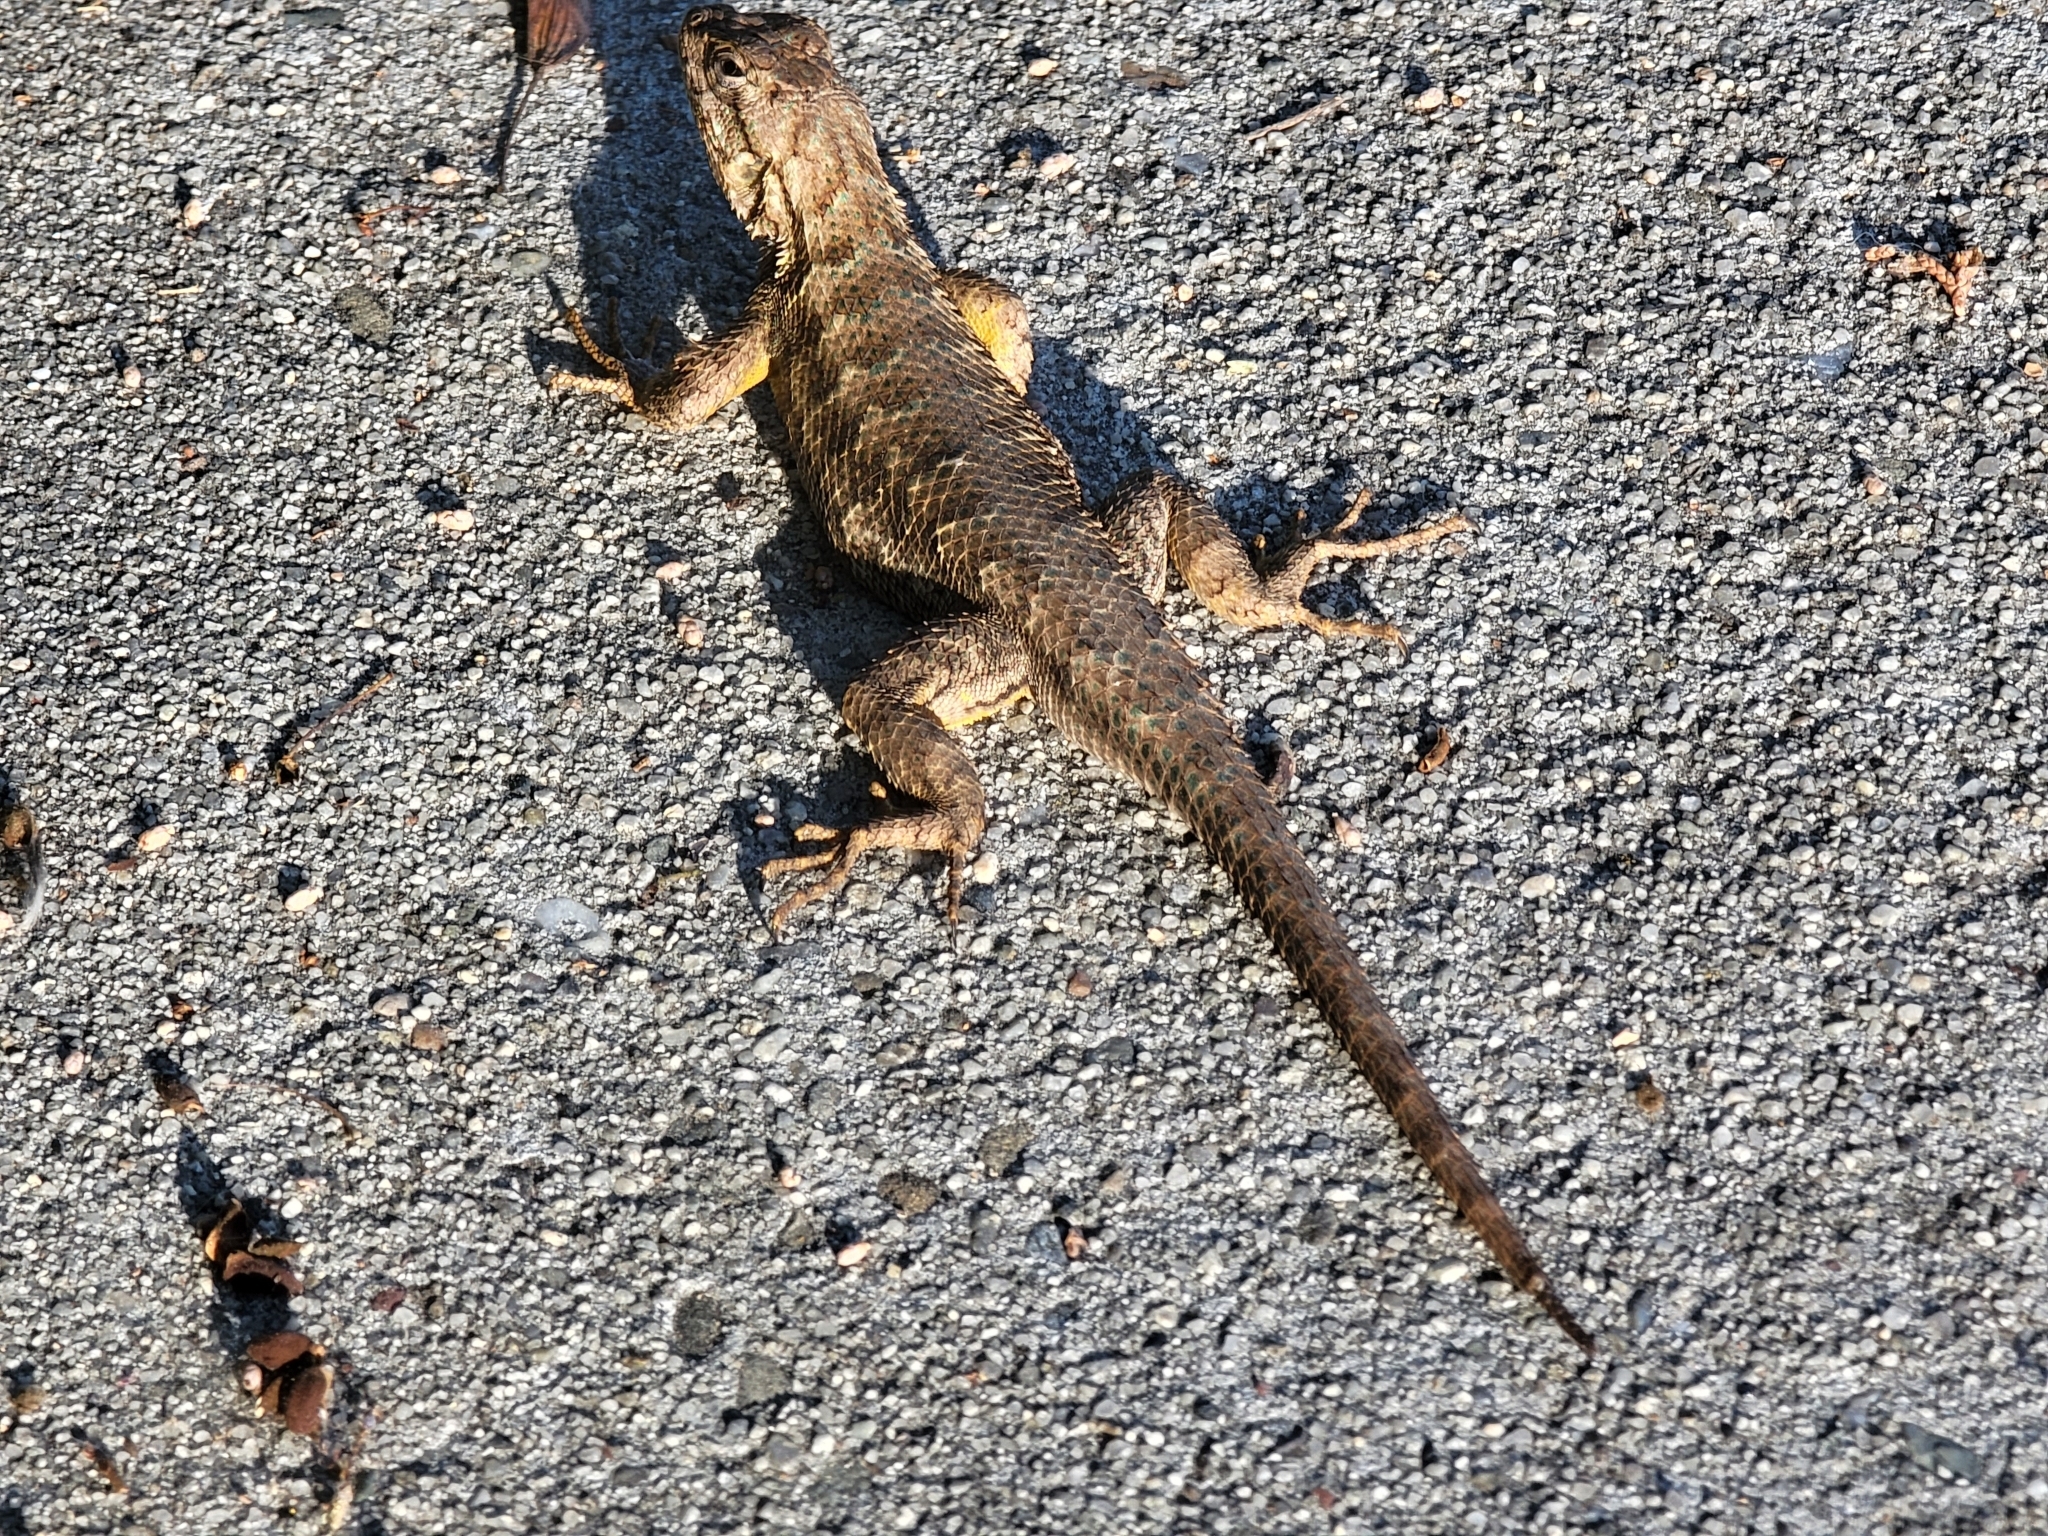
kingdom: Animalia
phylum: Chordata
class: Squamata
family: Phrynosomatidae
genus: Sceloporus
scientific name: Sceloporus occidentalis
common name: Western fence lizard
